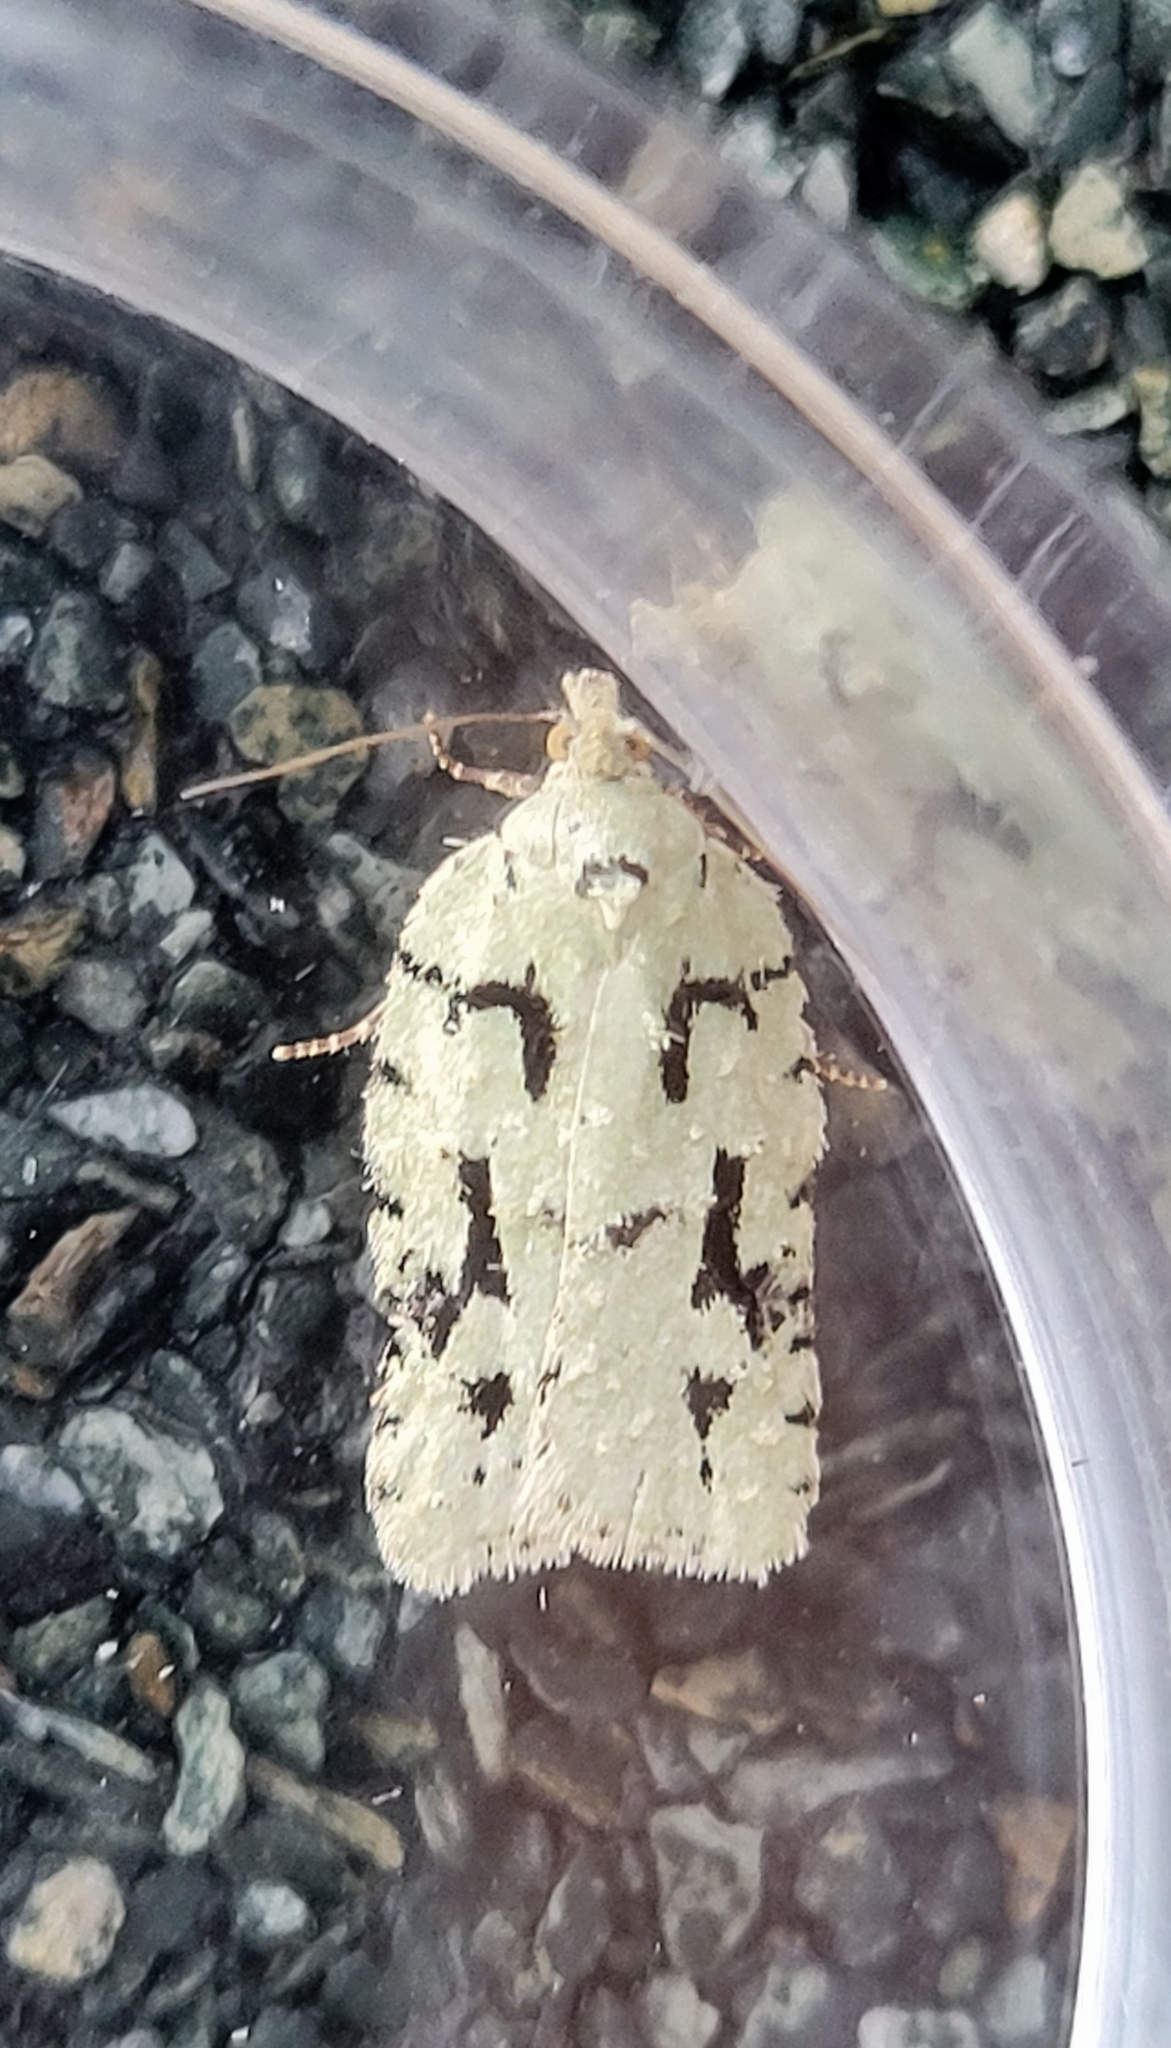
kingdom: Animalia
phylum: Arthropoda
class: Insecta
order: Lepidoptera
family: Tortricidae
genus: Acleris
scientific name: Acleris literana
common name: Lichen button
